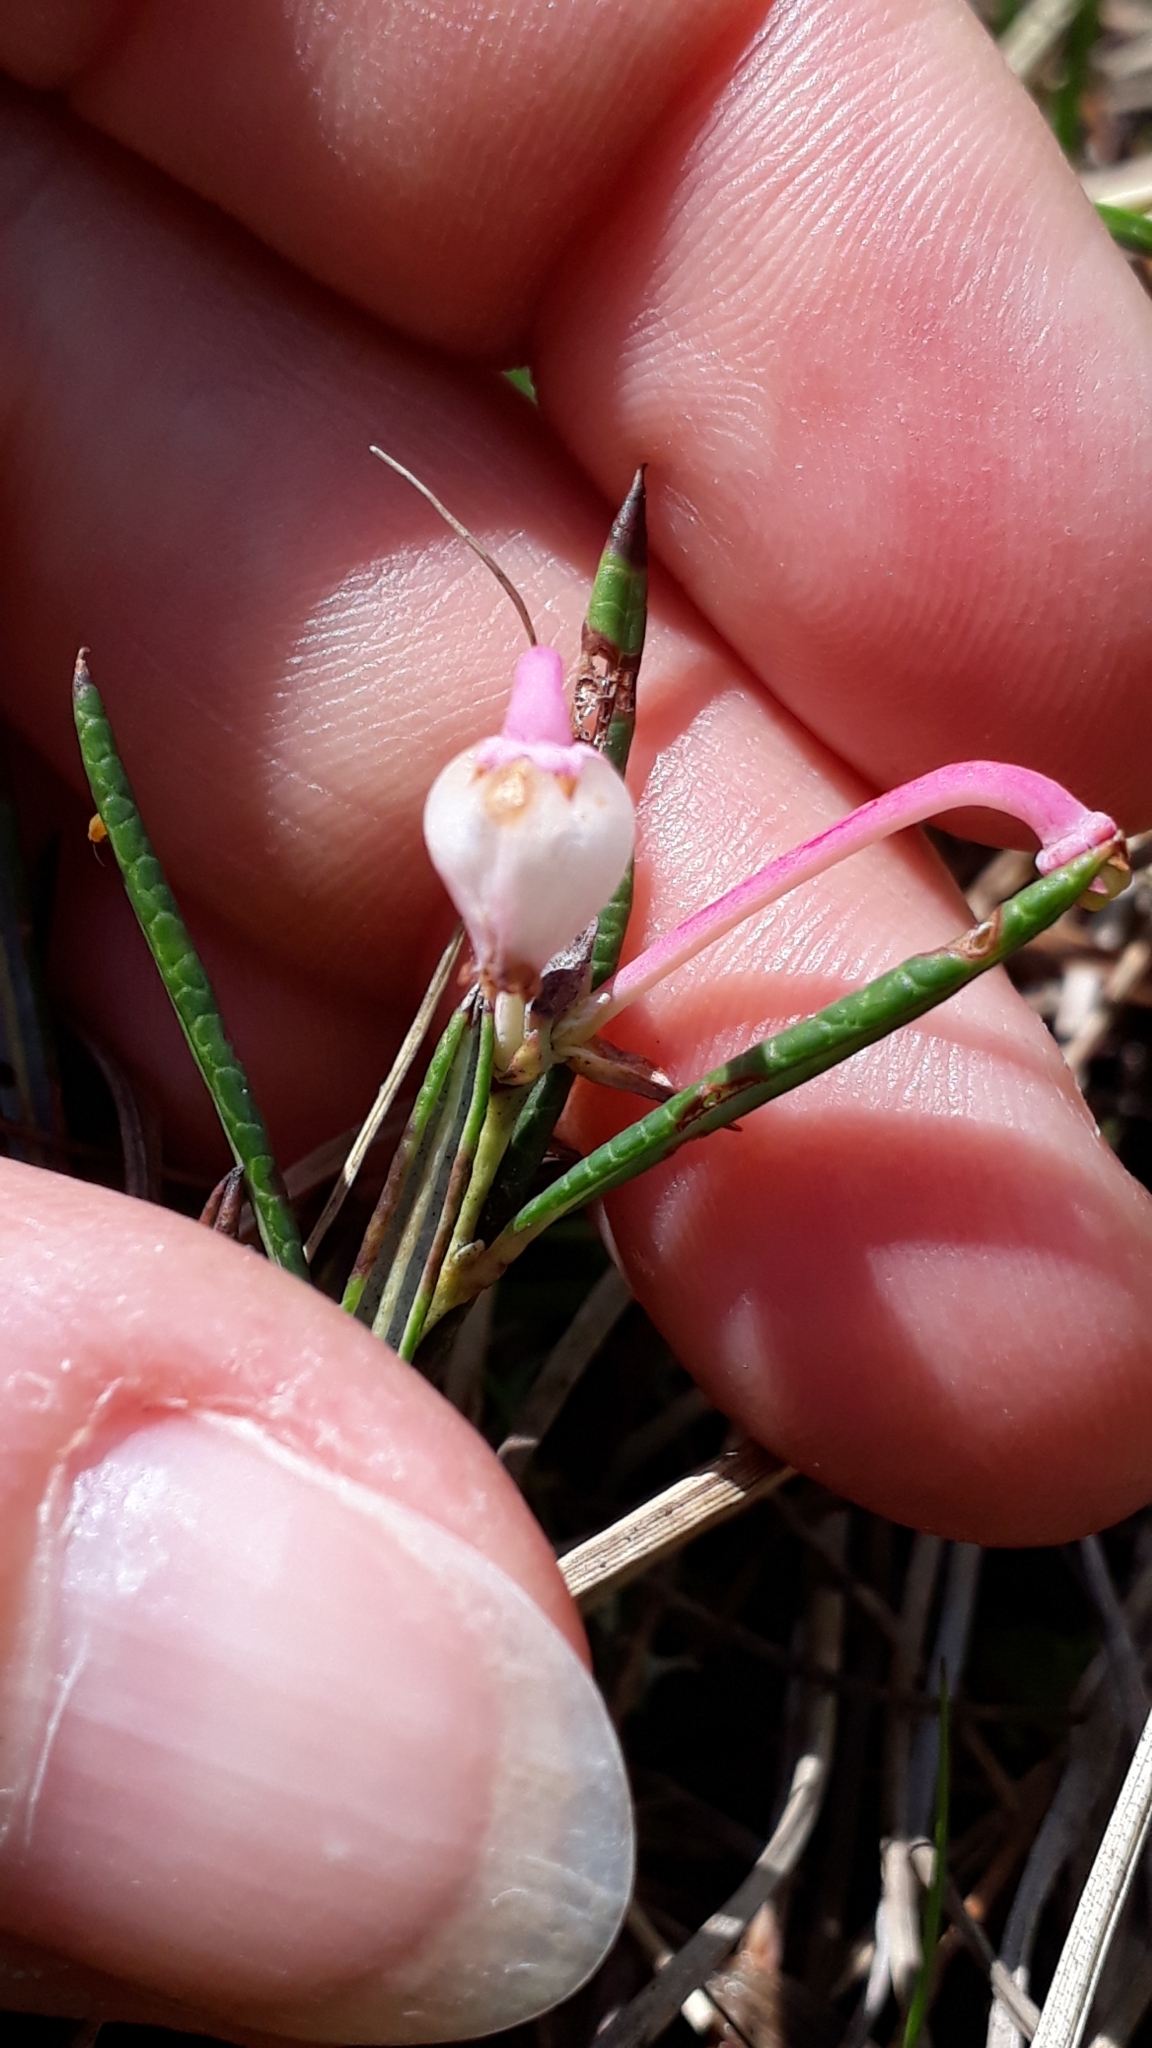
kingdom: Plantae
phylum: Tracheophyta
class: Magnoliopsida
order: Ericales
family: Ericaceae
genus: Andromeda
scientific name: Andromeda polifolia
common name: Bog-rosemary
